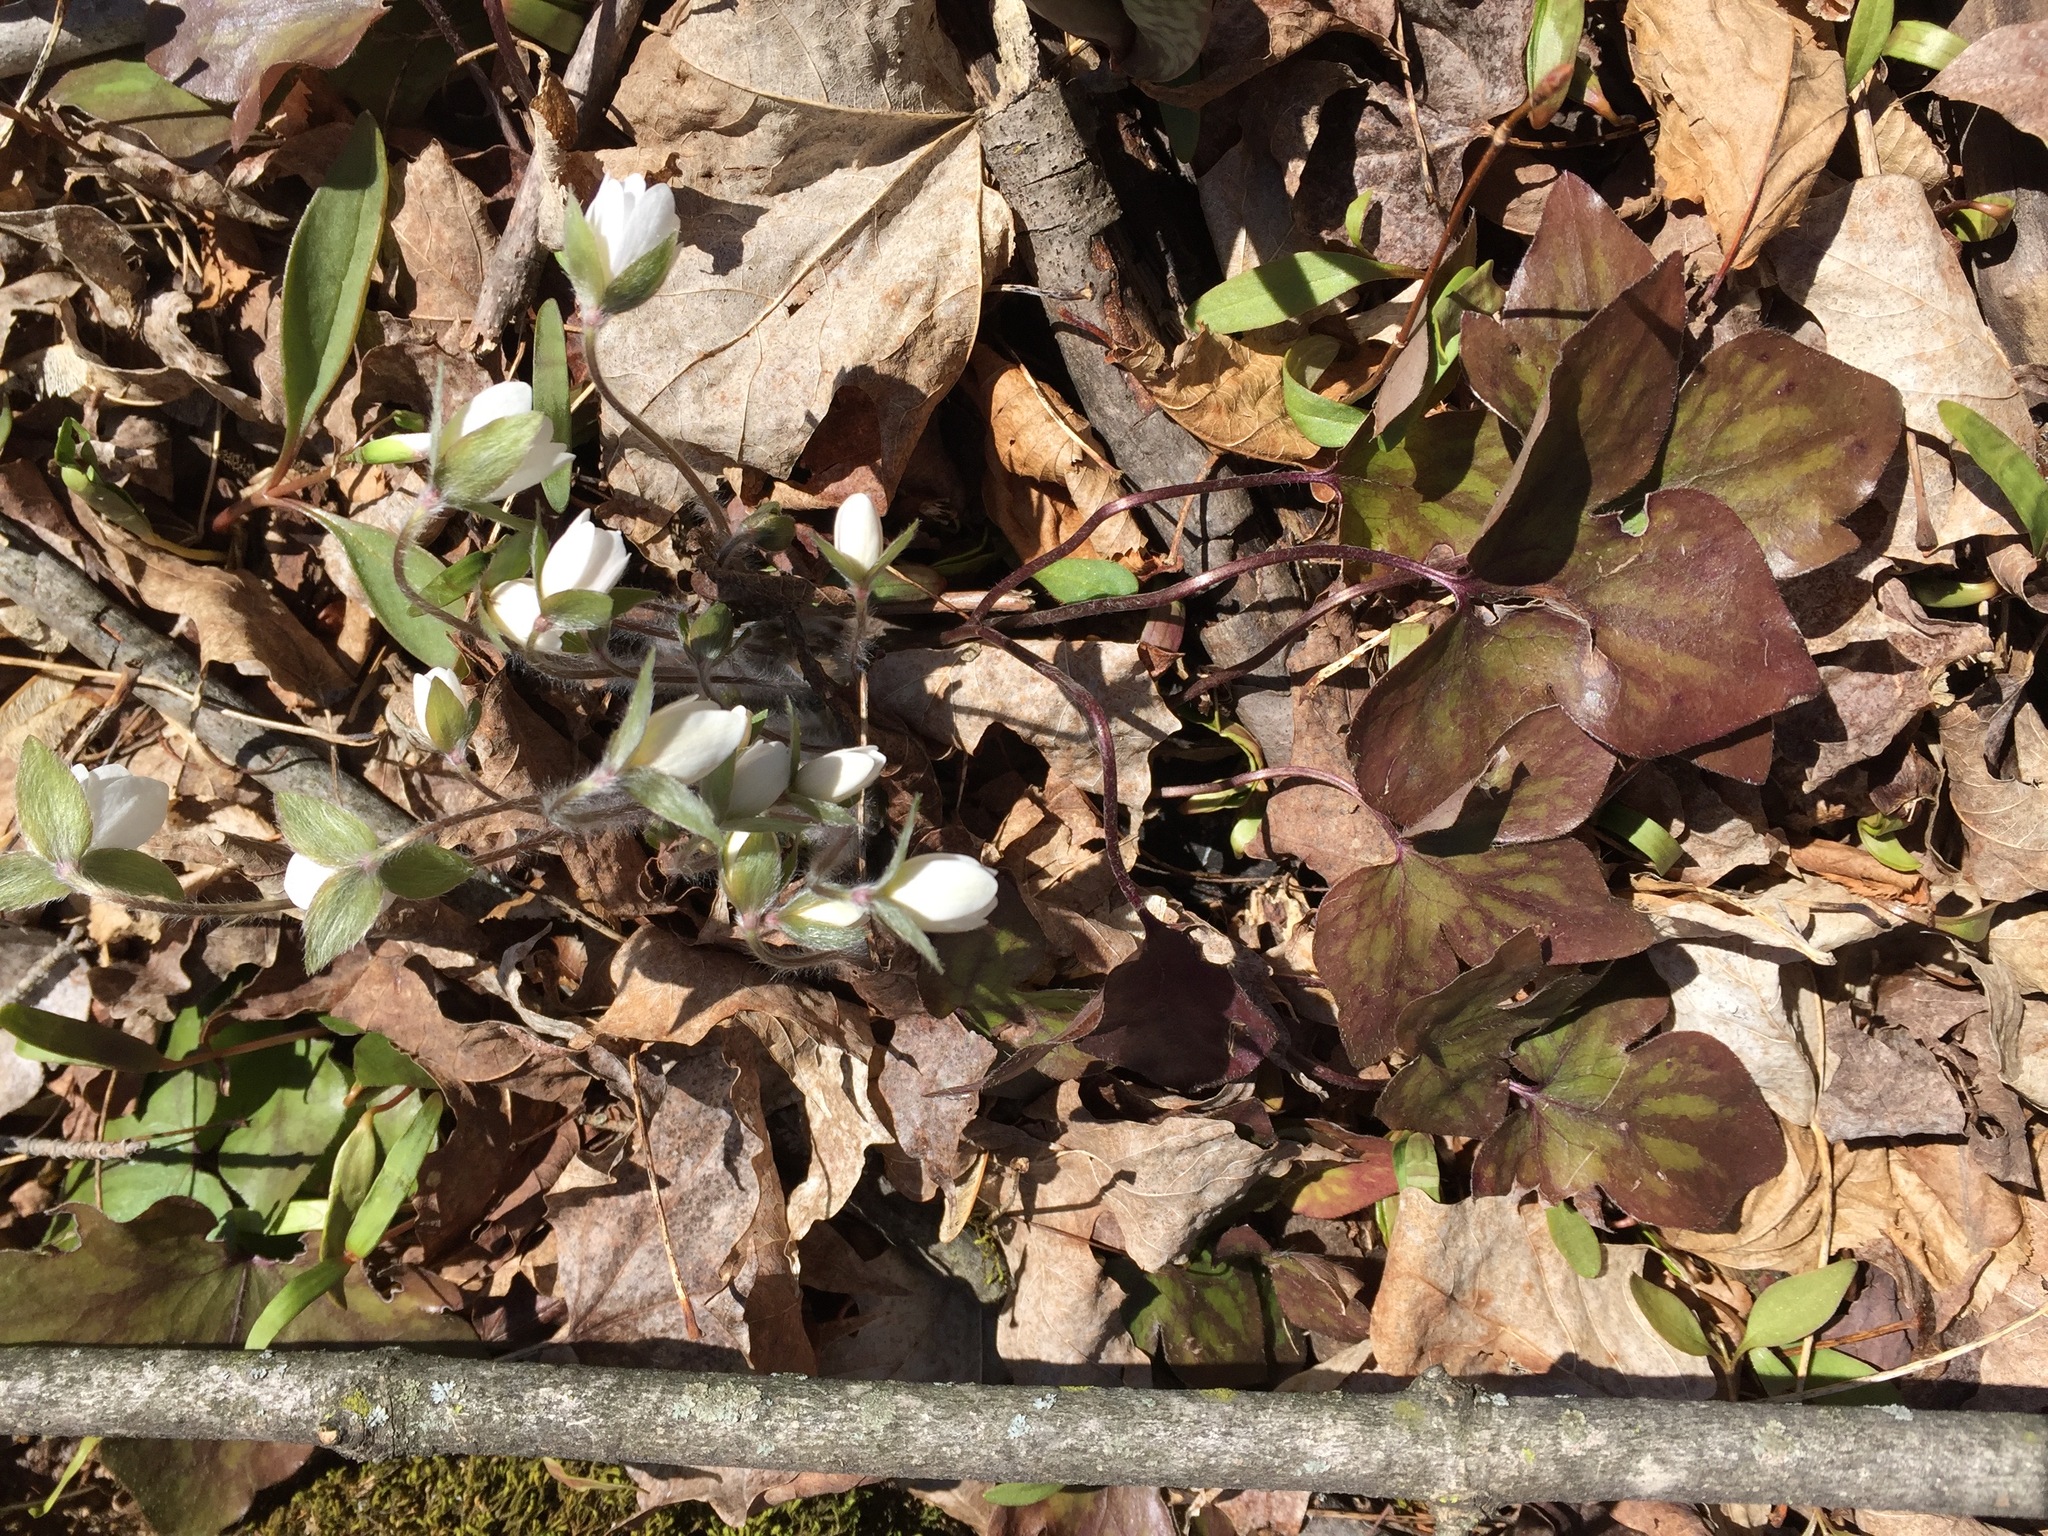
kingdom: Plantae
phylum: Tracheophyta
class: Magnoliopsida
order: Ranunculales
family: Ranunculaceae
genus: Hepatica
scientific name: Hepatica acutiloba
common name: Sharp-lobed hepatica
